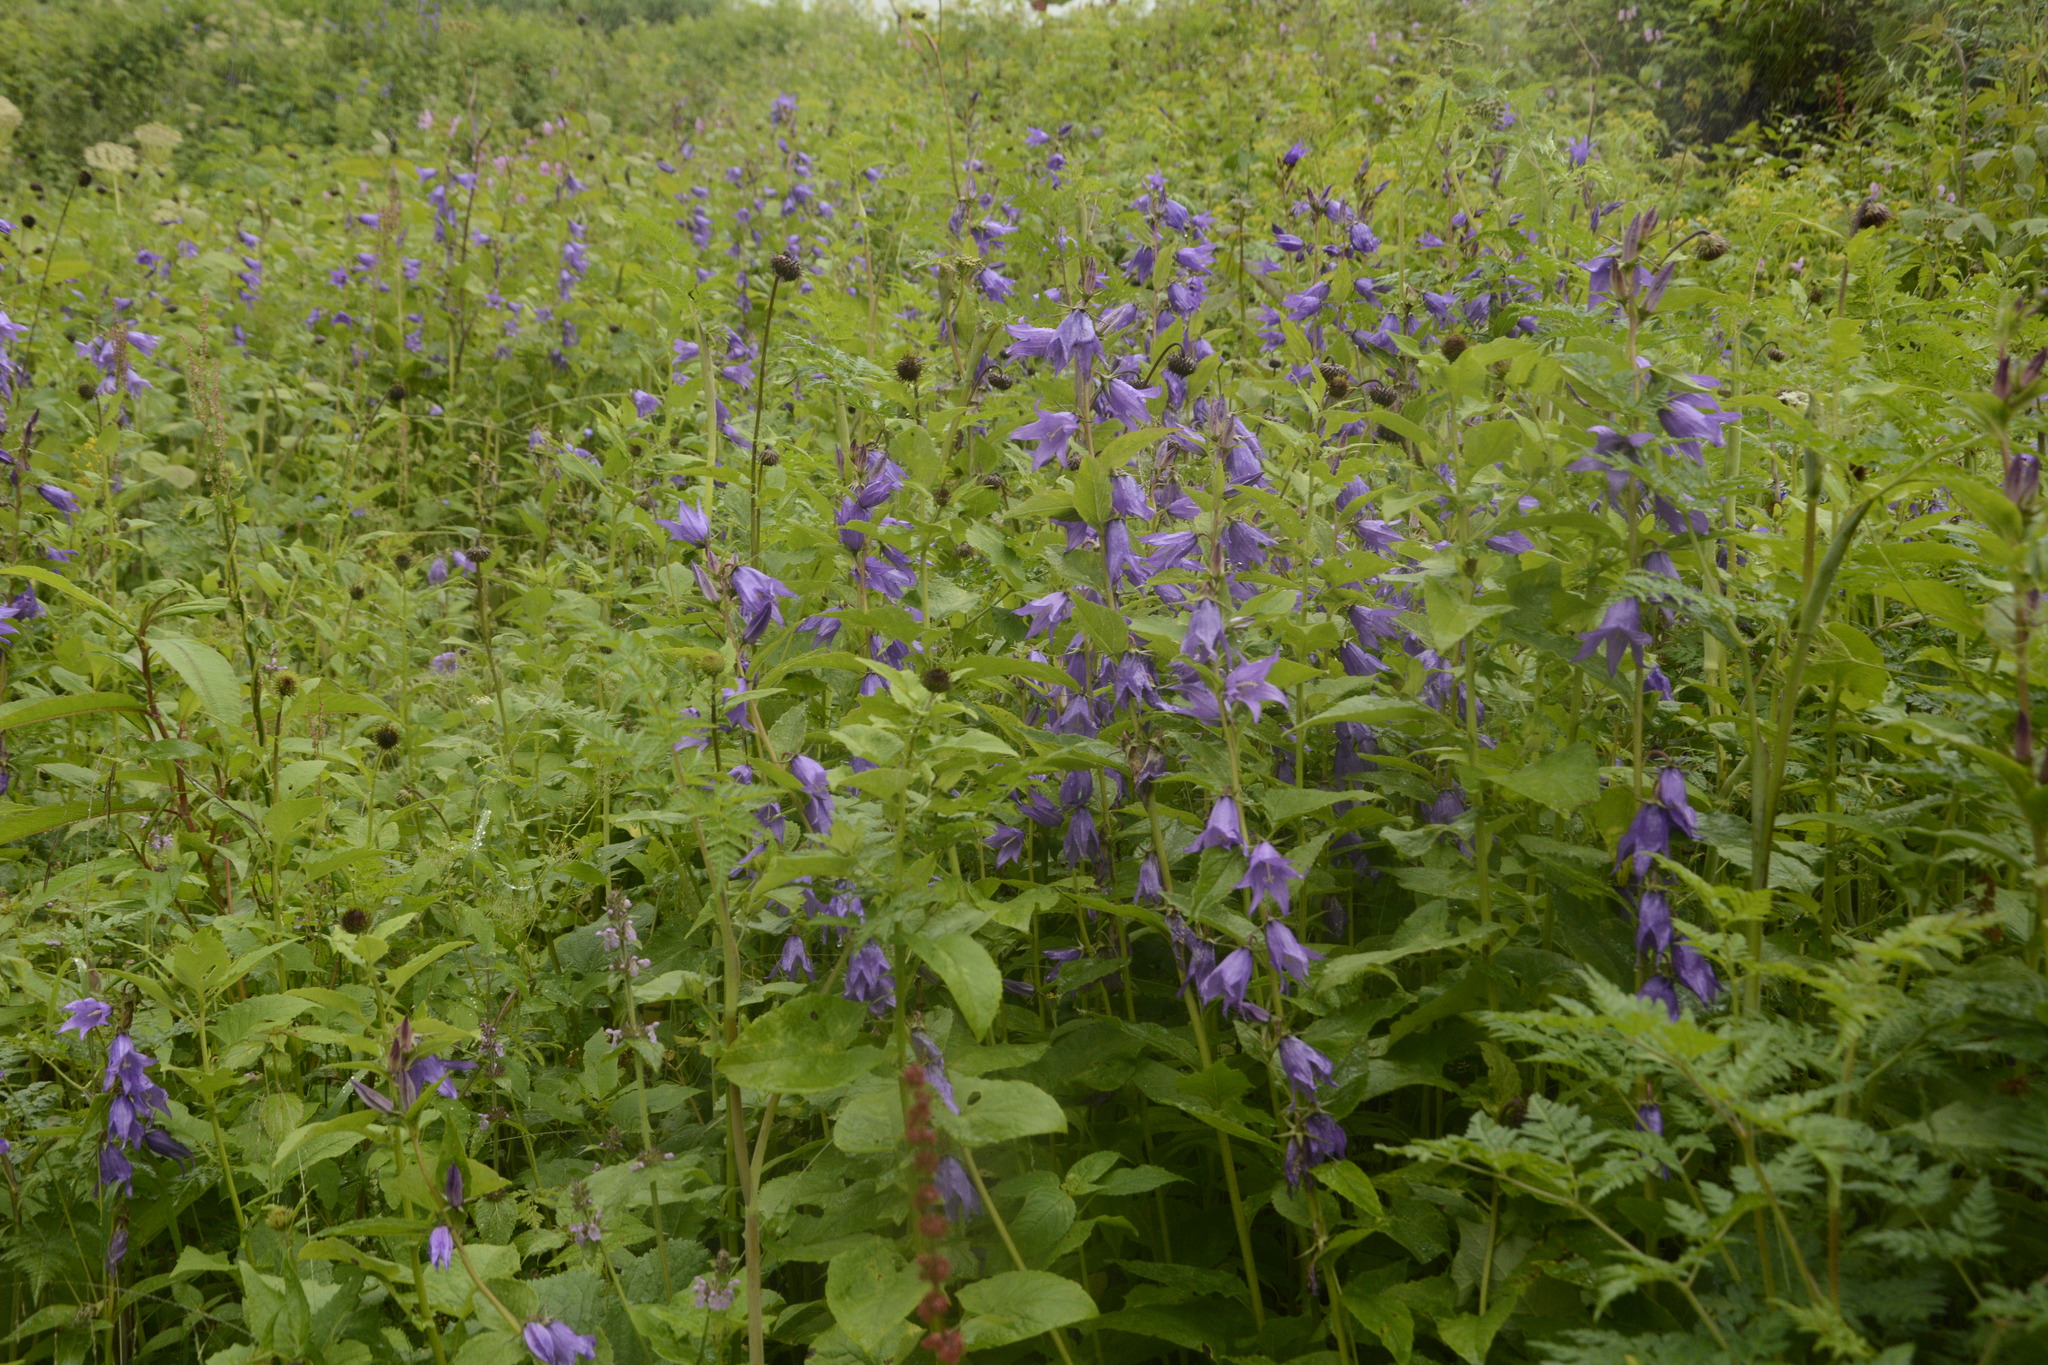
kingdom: Plantae
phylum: Tracheophyta
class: Magnoliopsida
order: Asterales
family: Campanulaceae
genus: Campanula
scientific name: Campanula latifolia
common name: Giant bellflower
